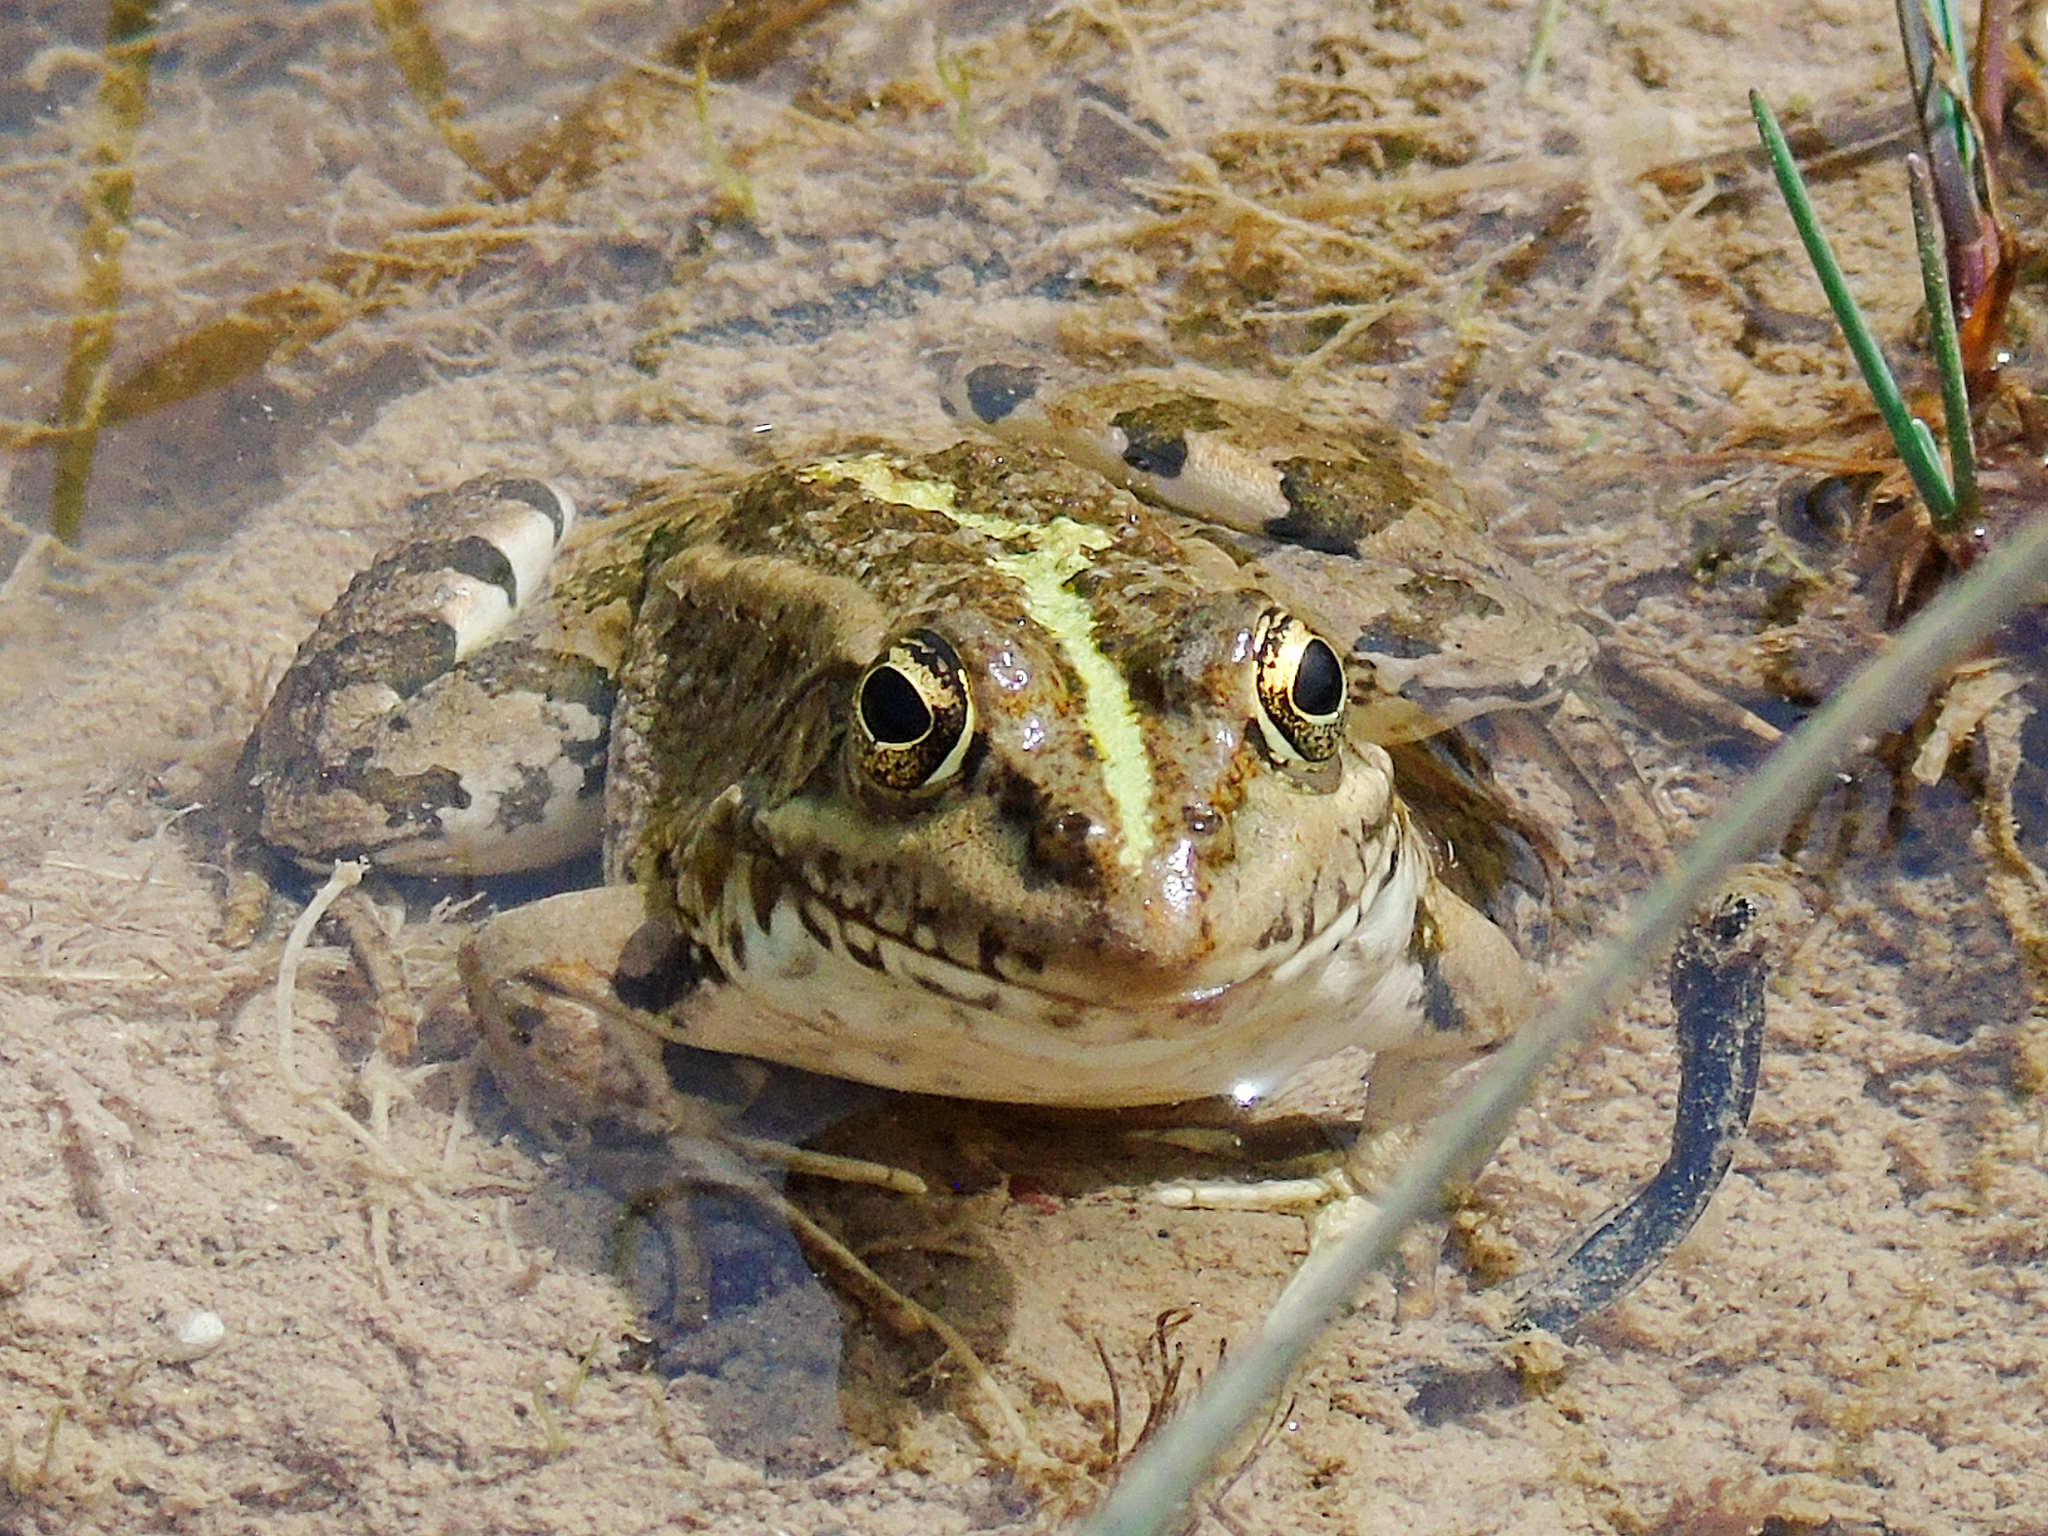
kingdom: Animalia
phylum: Chordata
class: Amphibia
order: Anura
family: Ranidae
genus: Pelophylax
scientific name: Pelophylax ridibundus
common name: Marsh frog
